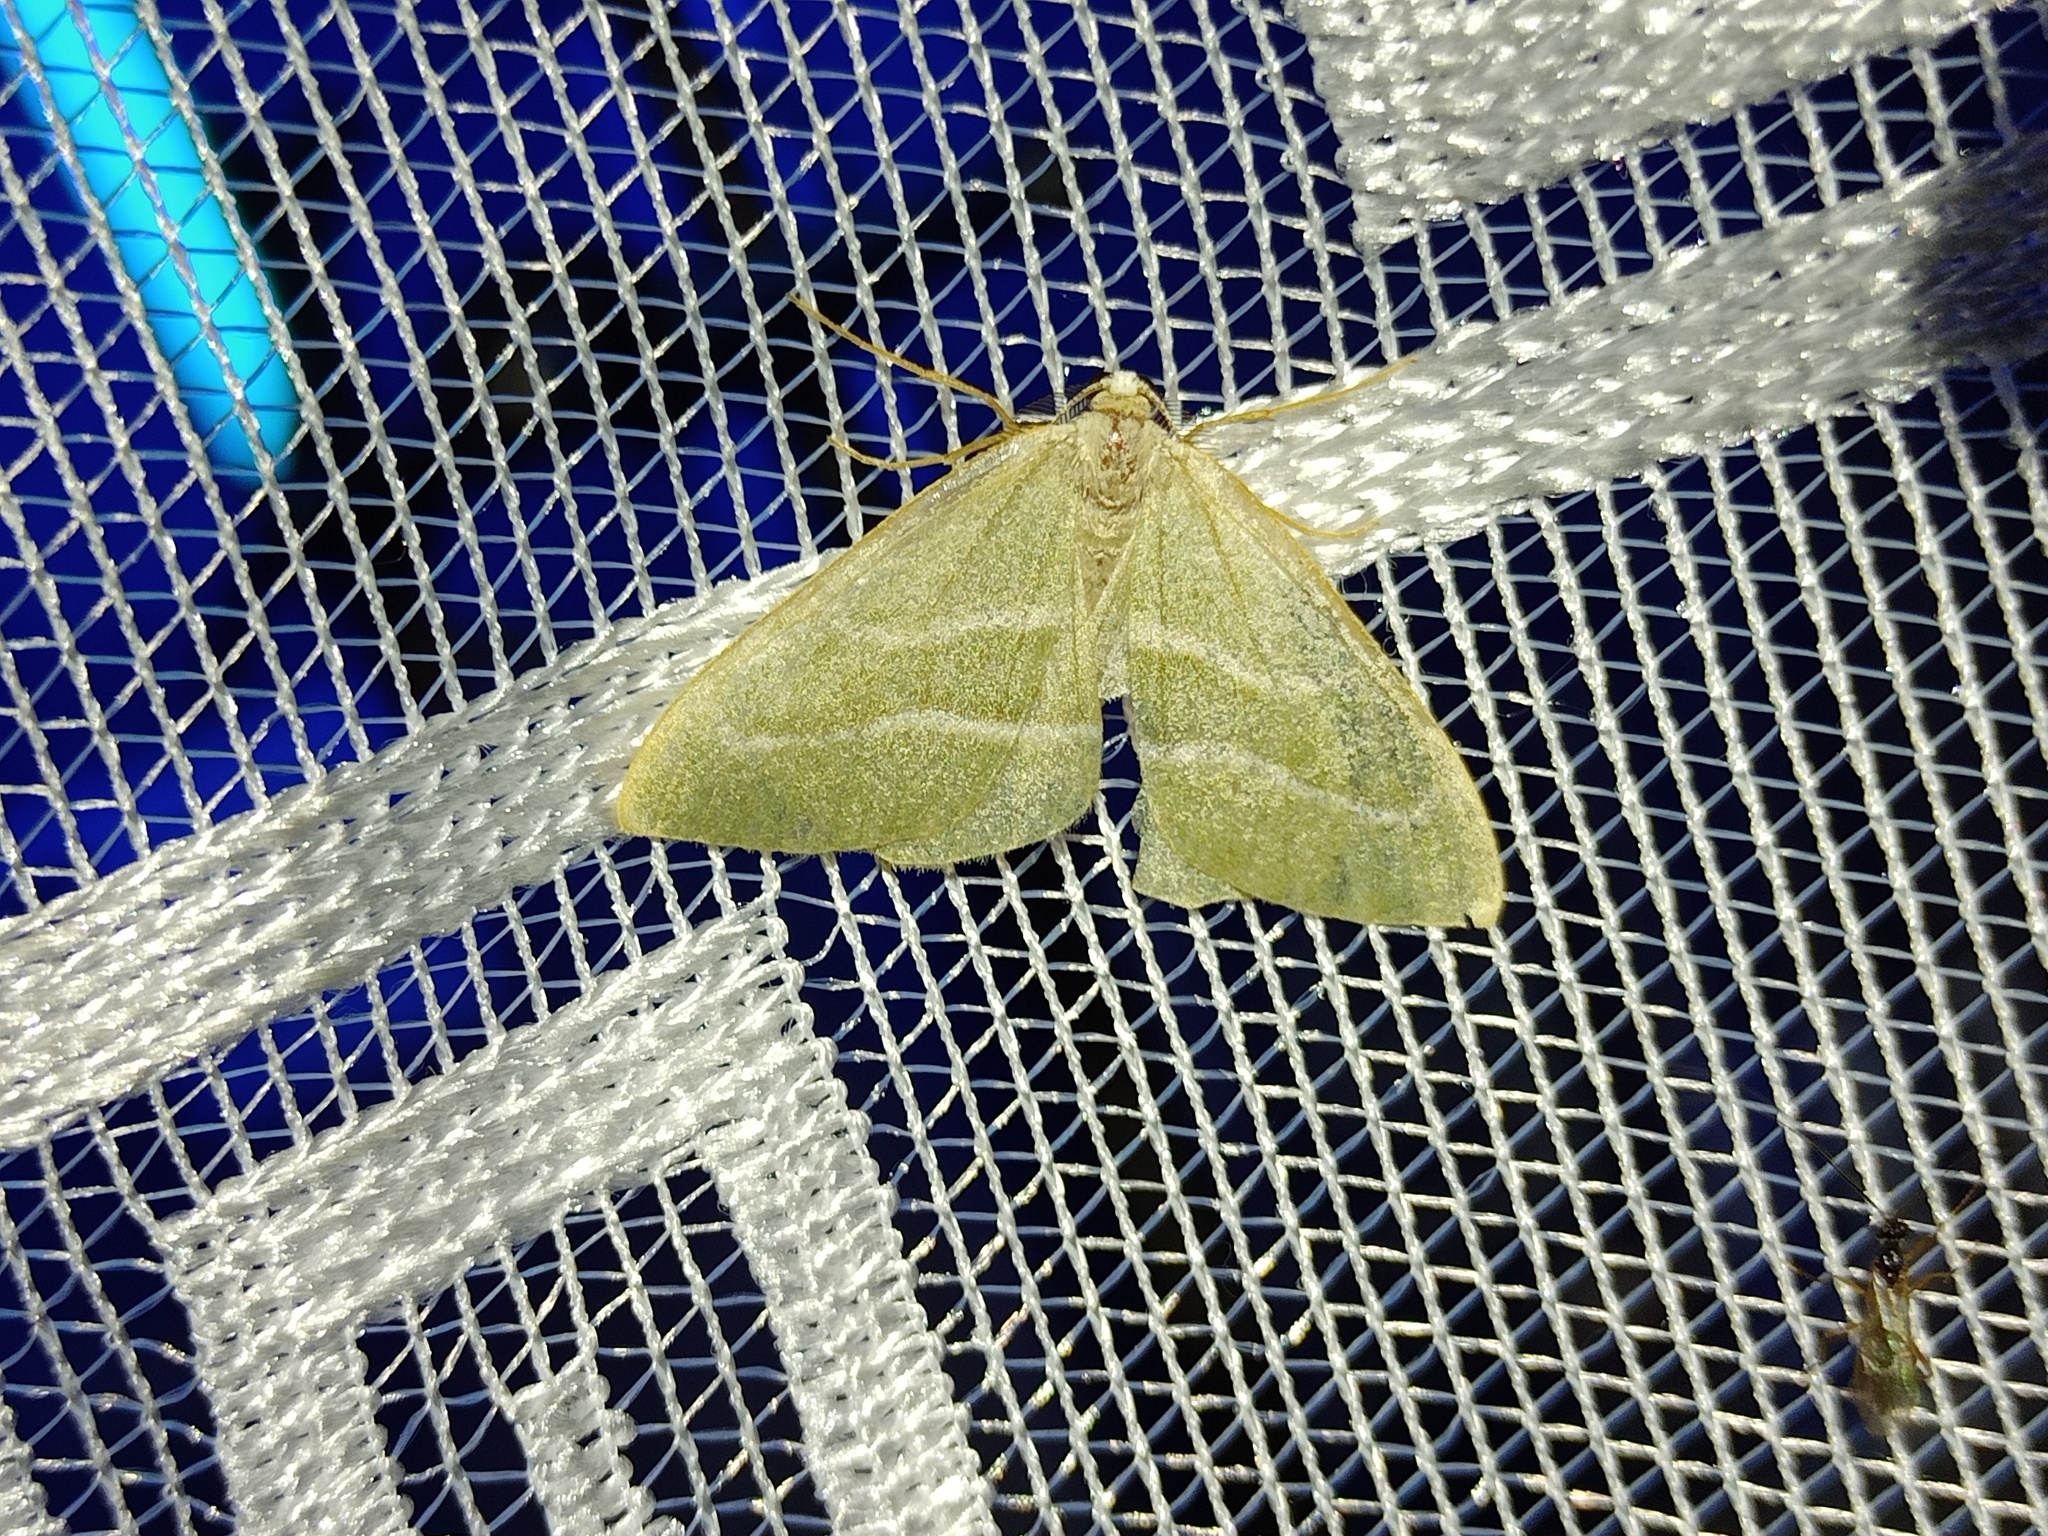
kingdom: Animalia
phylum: Arthropoda
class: Insecta
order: Lepidoptera
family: Geometridae
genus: Hylaea
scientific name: Hylaea fasciaria
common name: Barred red
